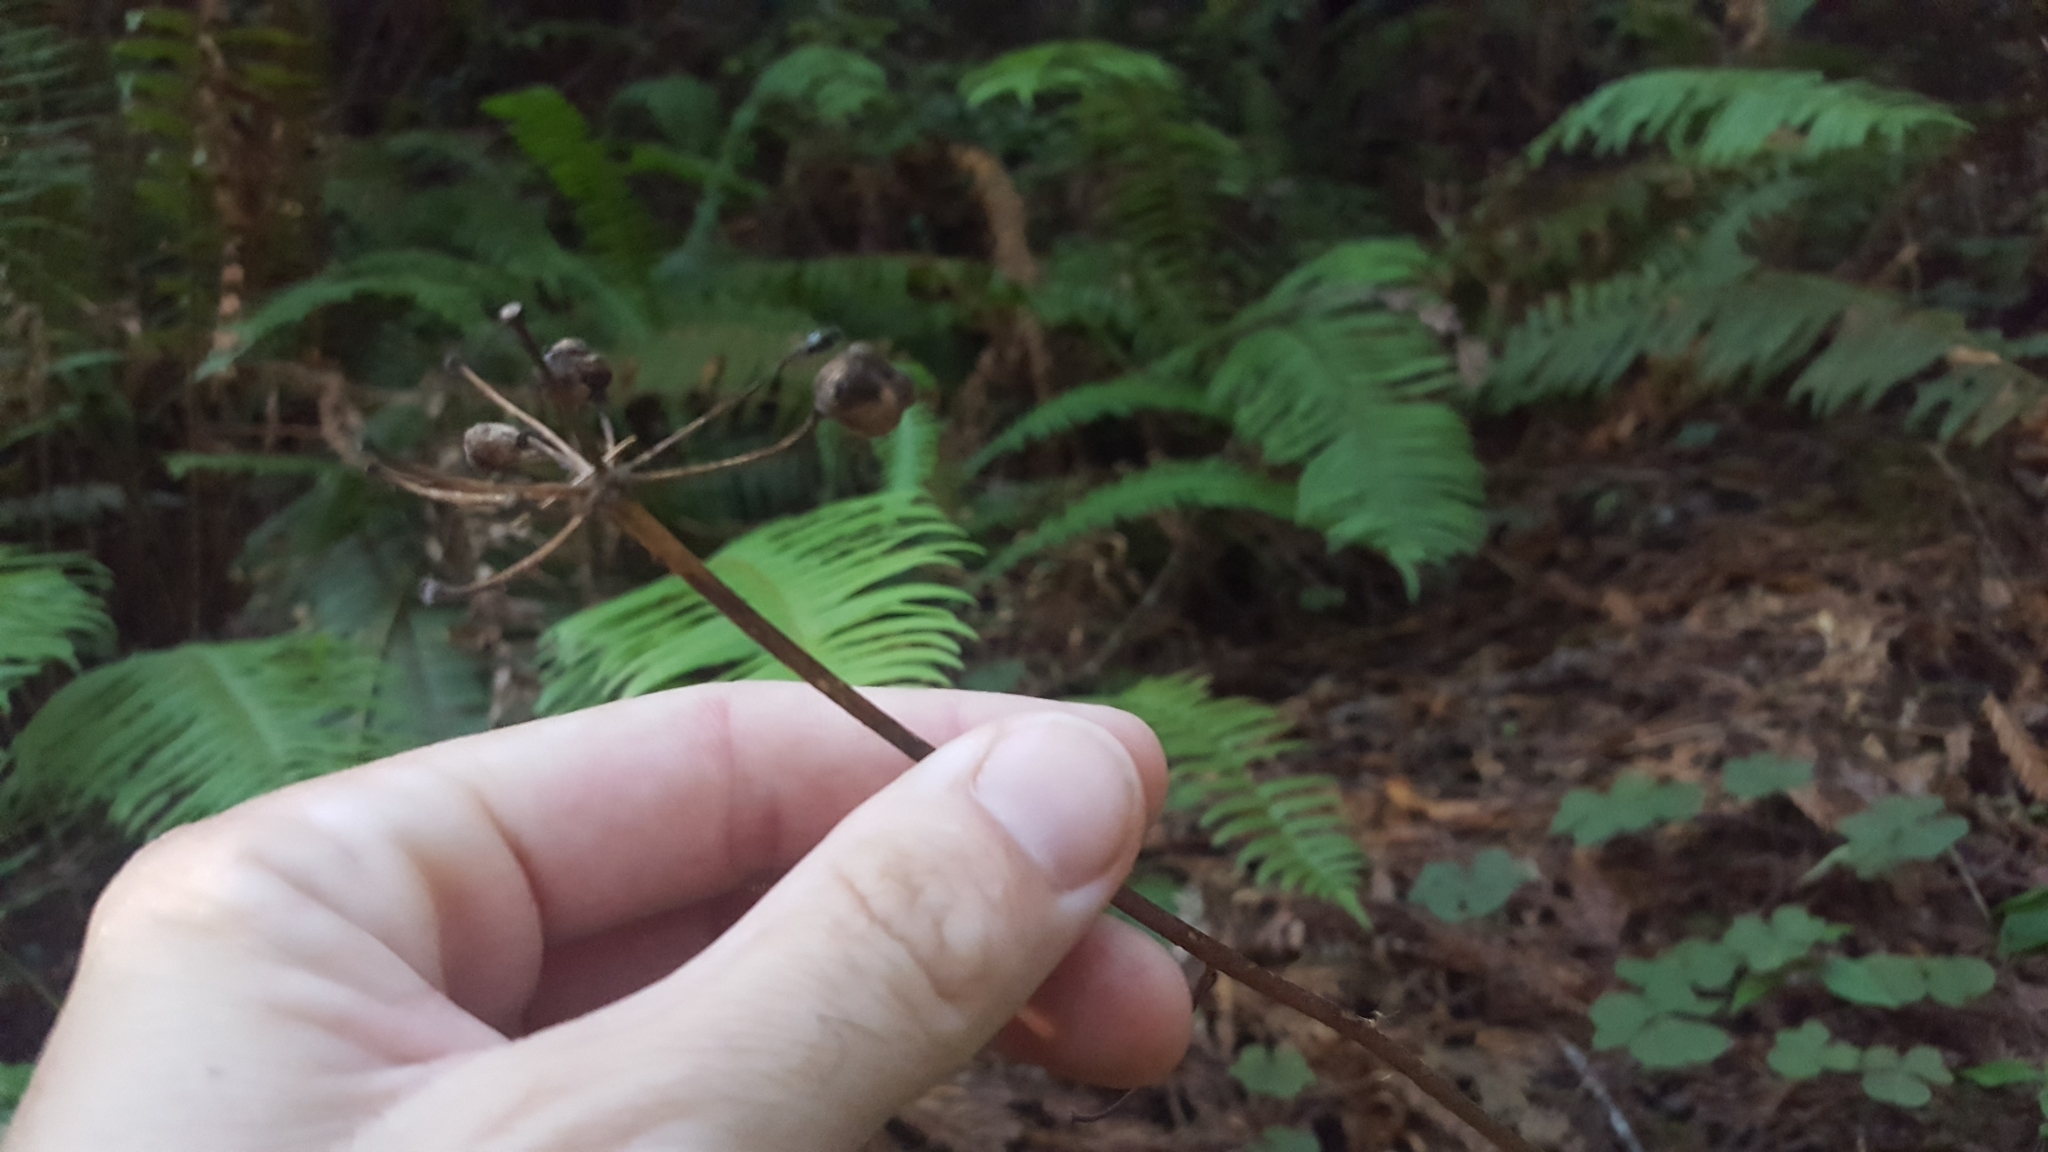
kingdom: Plantae
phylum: Tracheophyta
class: Liliopsida
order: Liliales
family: Liliaceae
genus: Clintonia
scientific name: Clintonia andrewsiana
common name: Red clintonia
